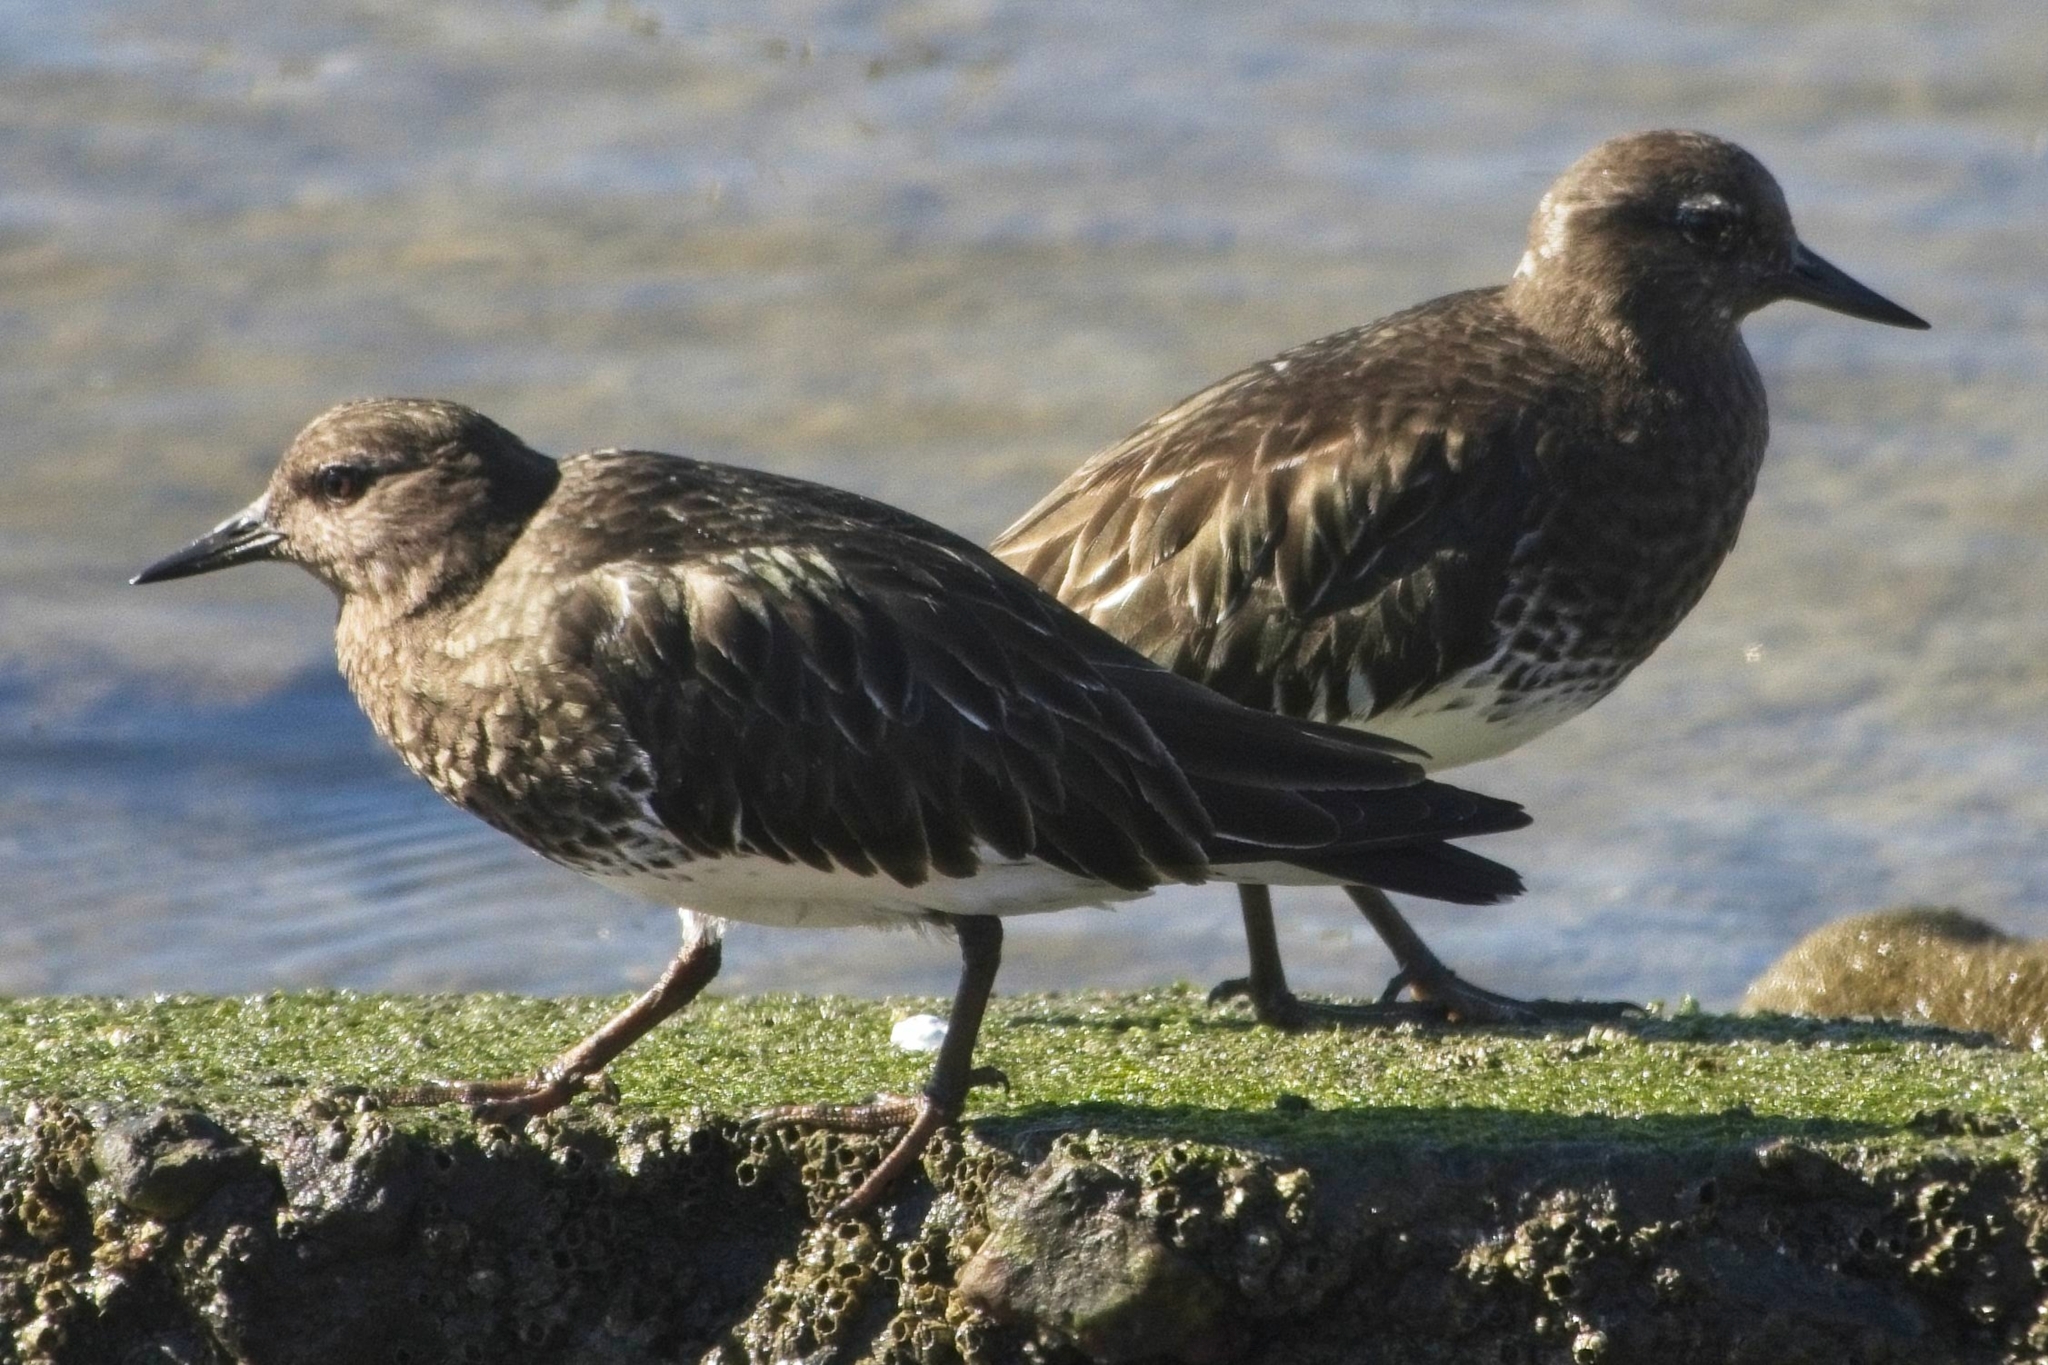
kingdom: Animalia
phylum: Chordata
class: Aves
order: Charadriiformes
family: Scolopacidae
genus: Arenaria
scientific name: Arenaria melanocephala
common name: Black turnstone
